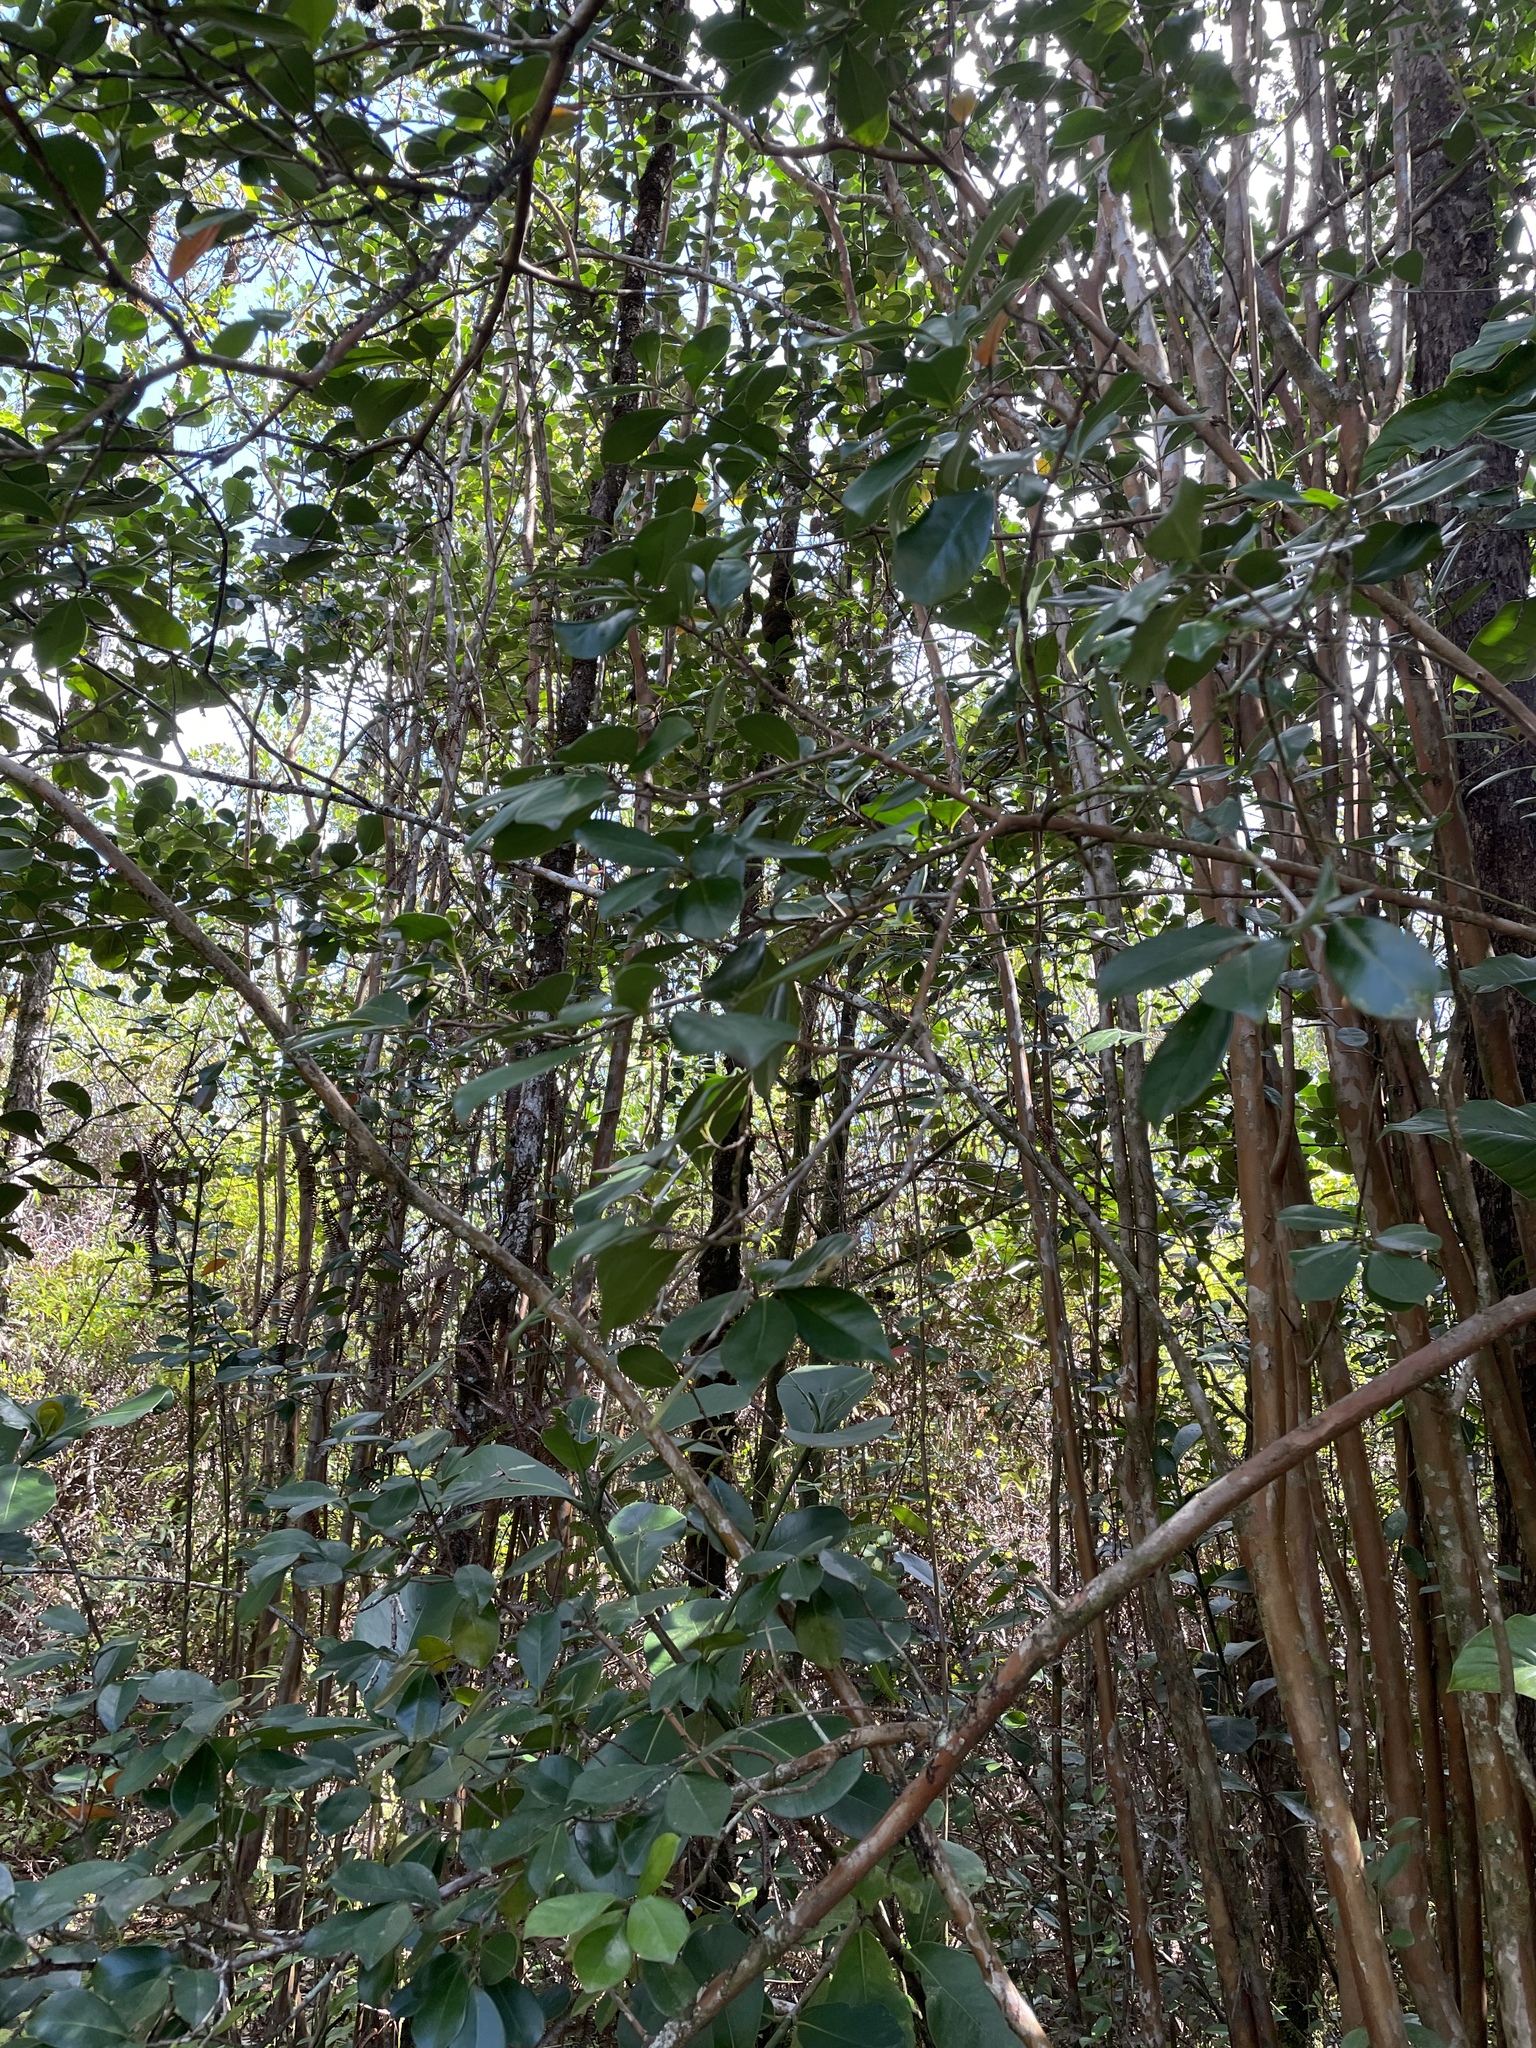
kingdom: Plantae
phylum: Tracheophyta
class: Magnoliopsida
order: Myrtales
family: Myrtaceae
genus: Psidium
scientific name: Psidium cattleianum
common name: Strawberry guava
